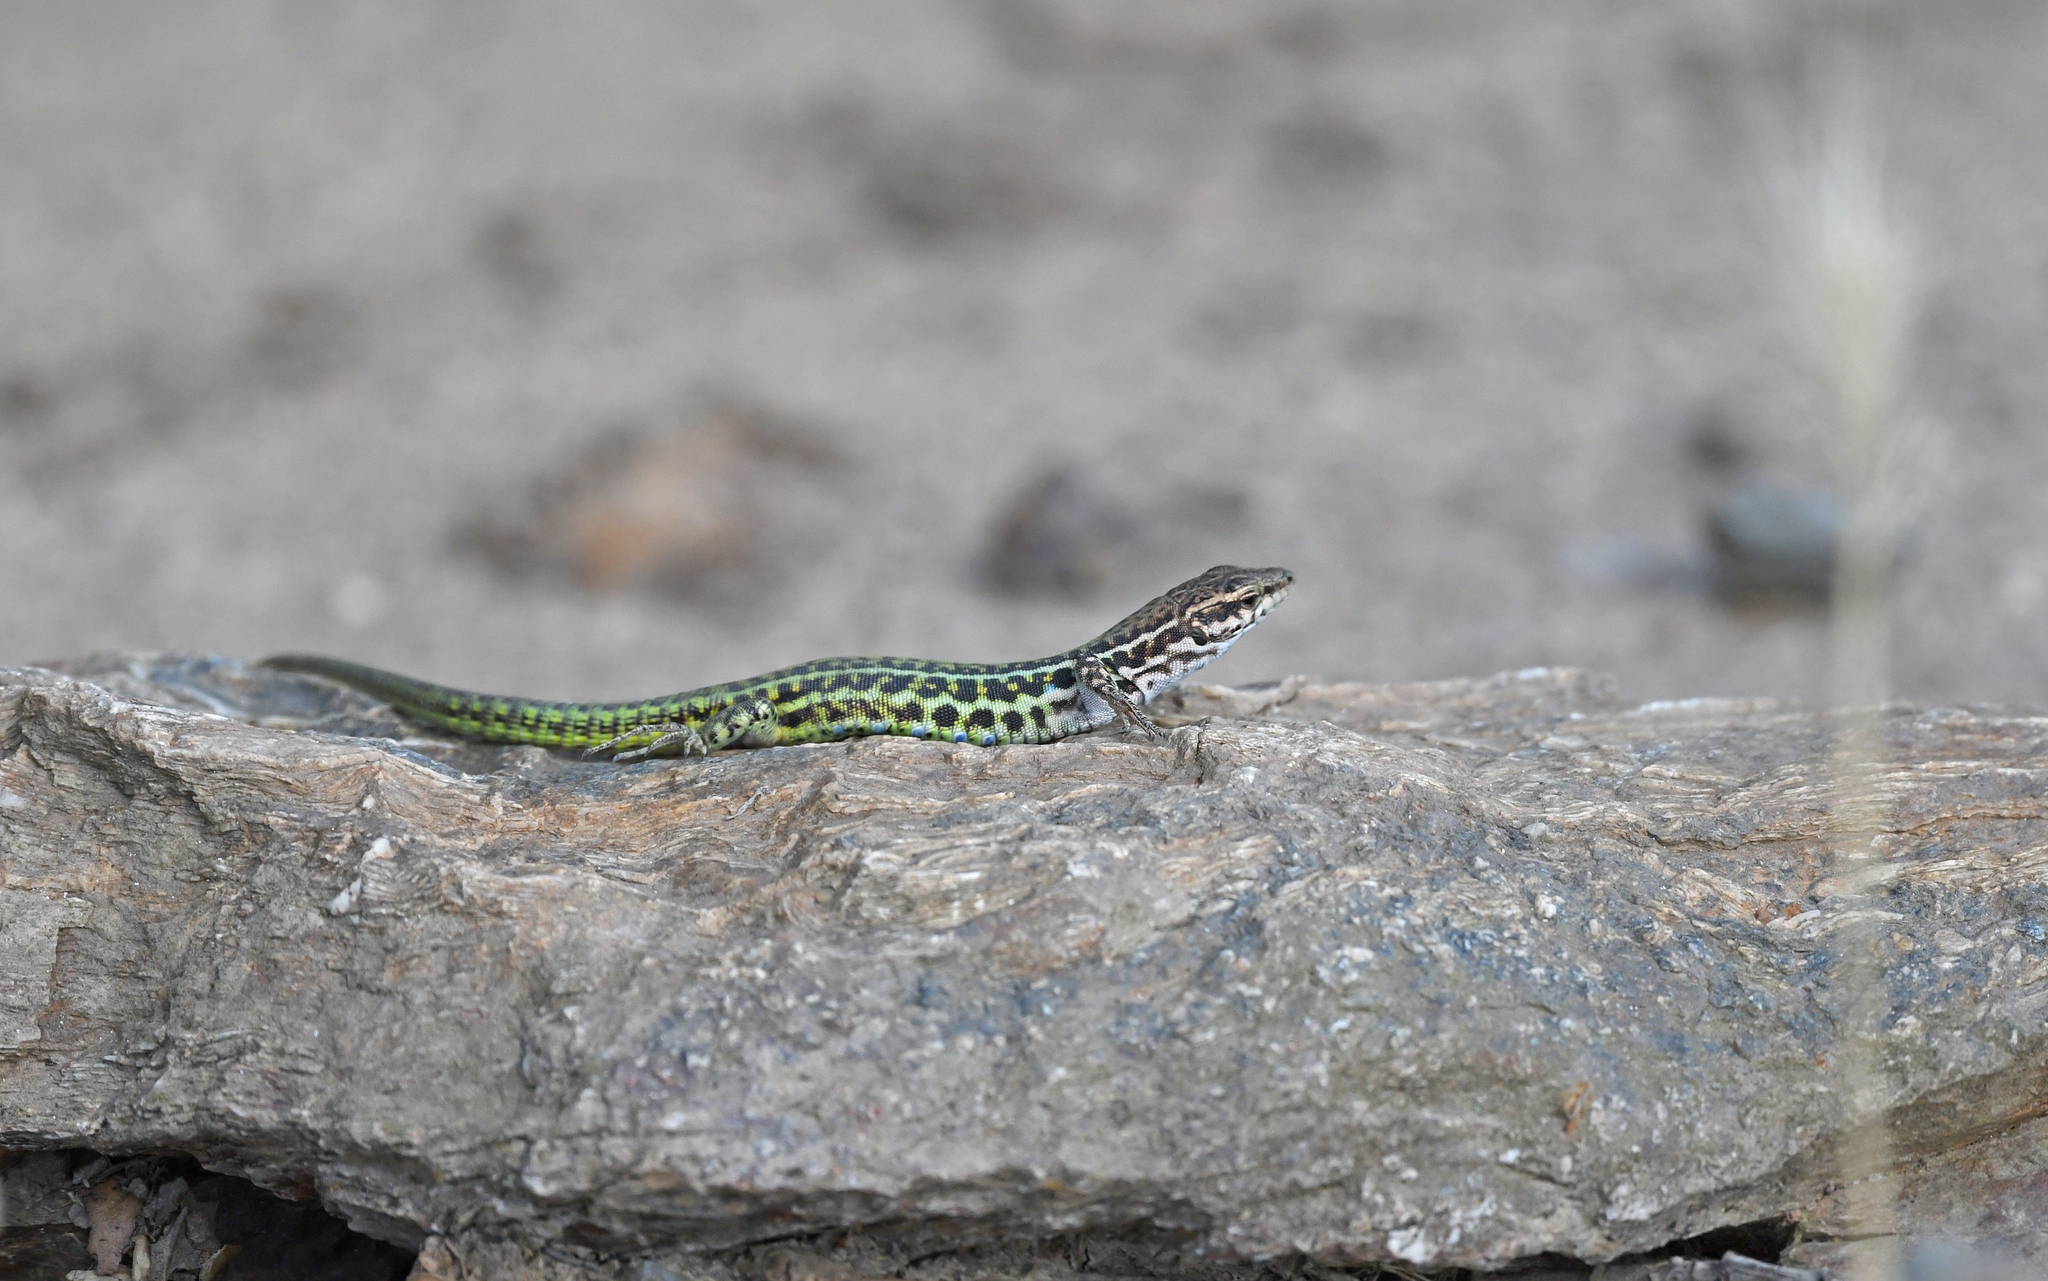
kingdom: Animalia
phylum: Chordata
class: Squamata
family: Lacertidae
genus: Podarcis
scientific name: Podarcis tiliguerta
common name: Tyrrhenian wall lizard
